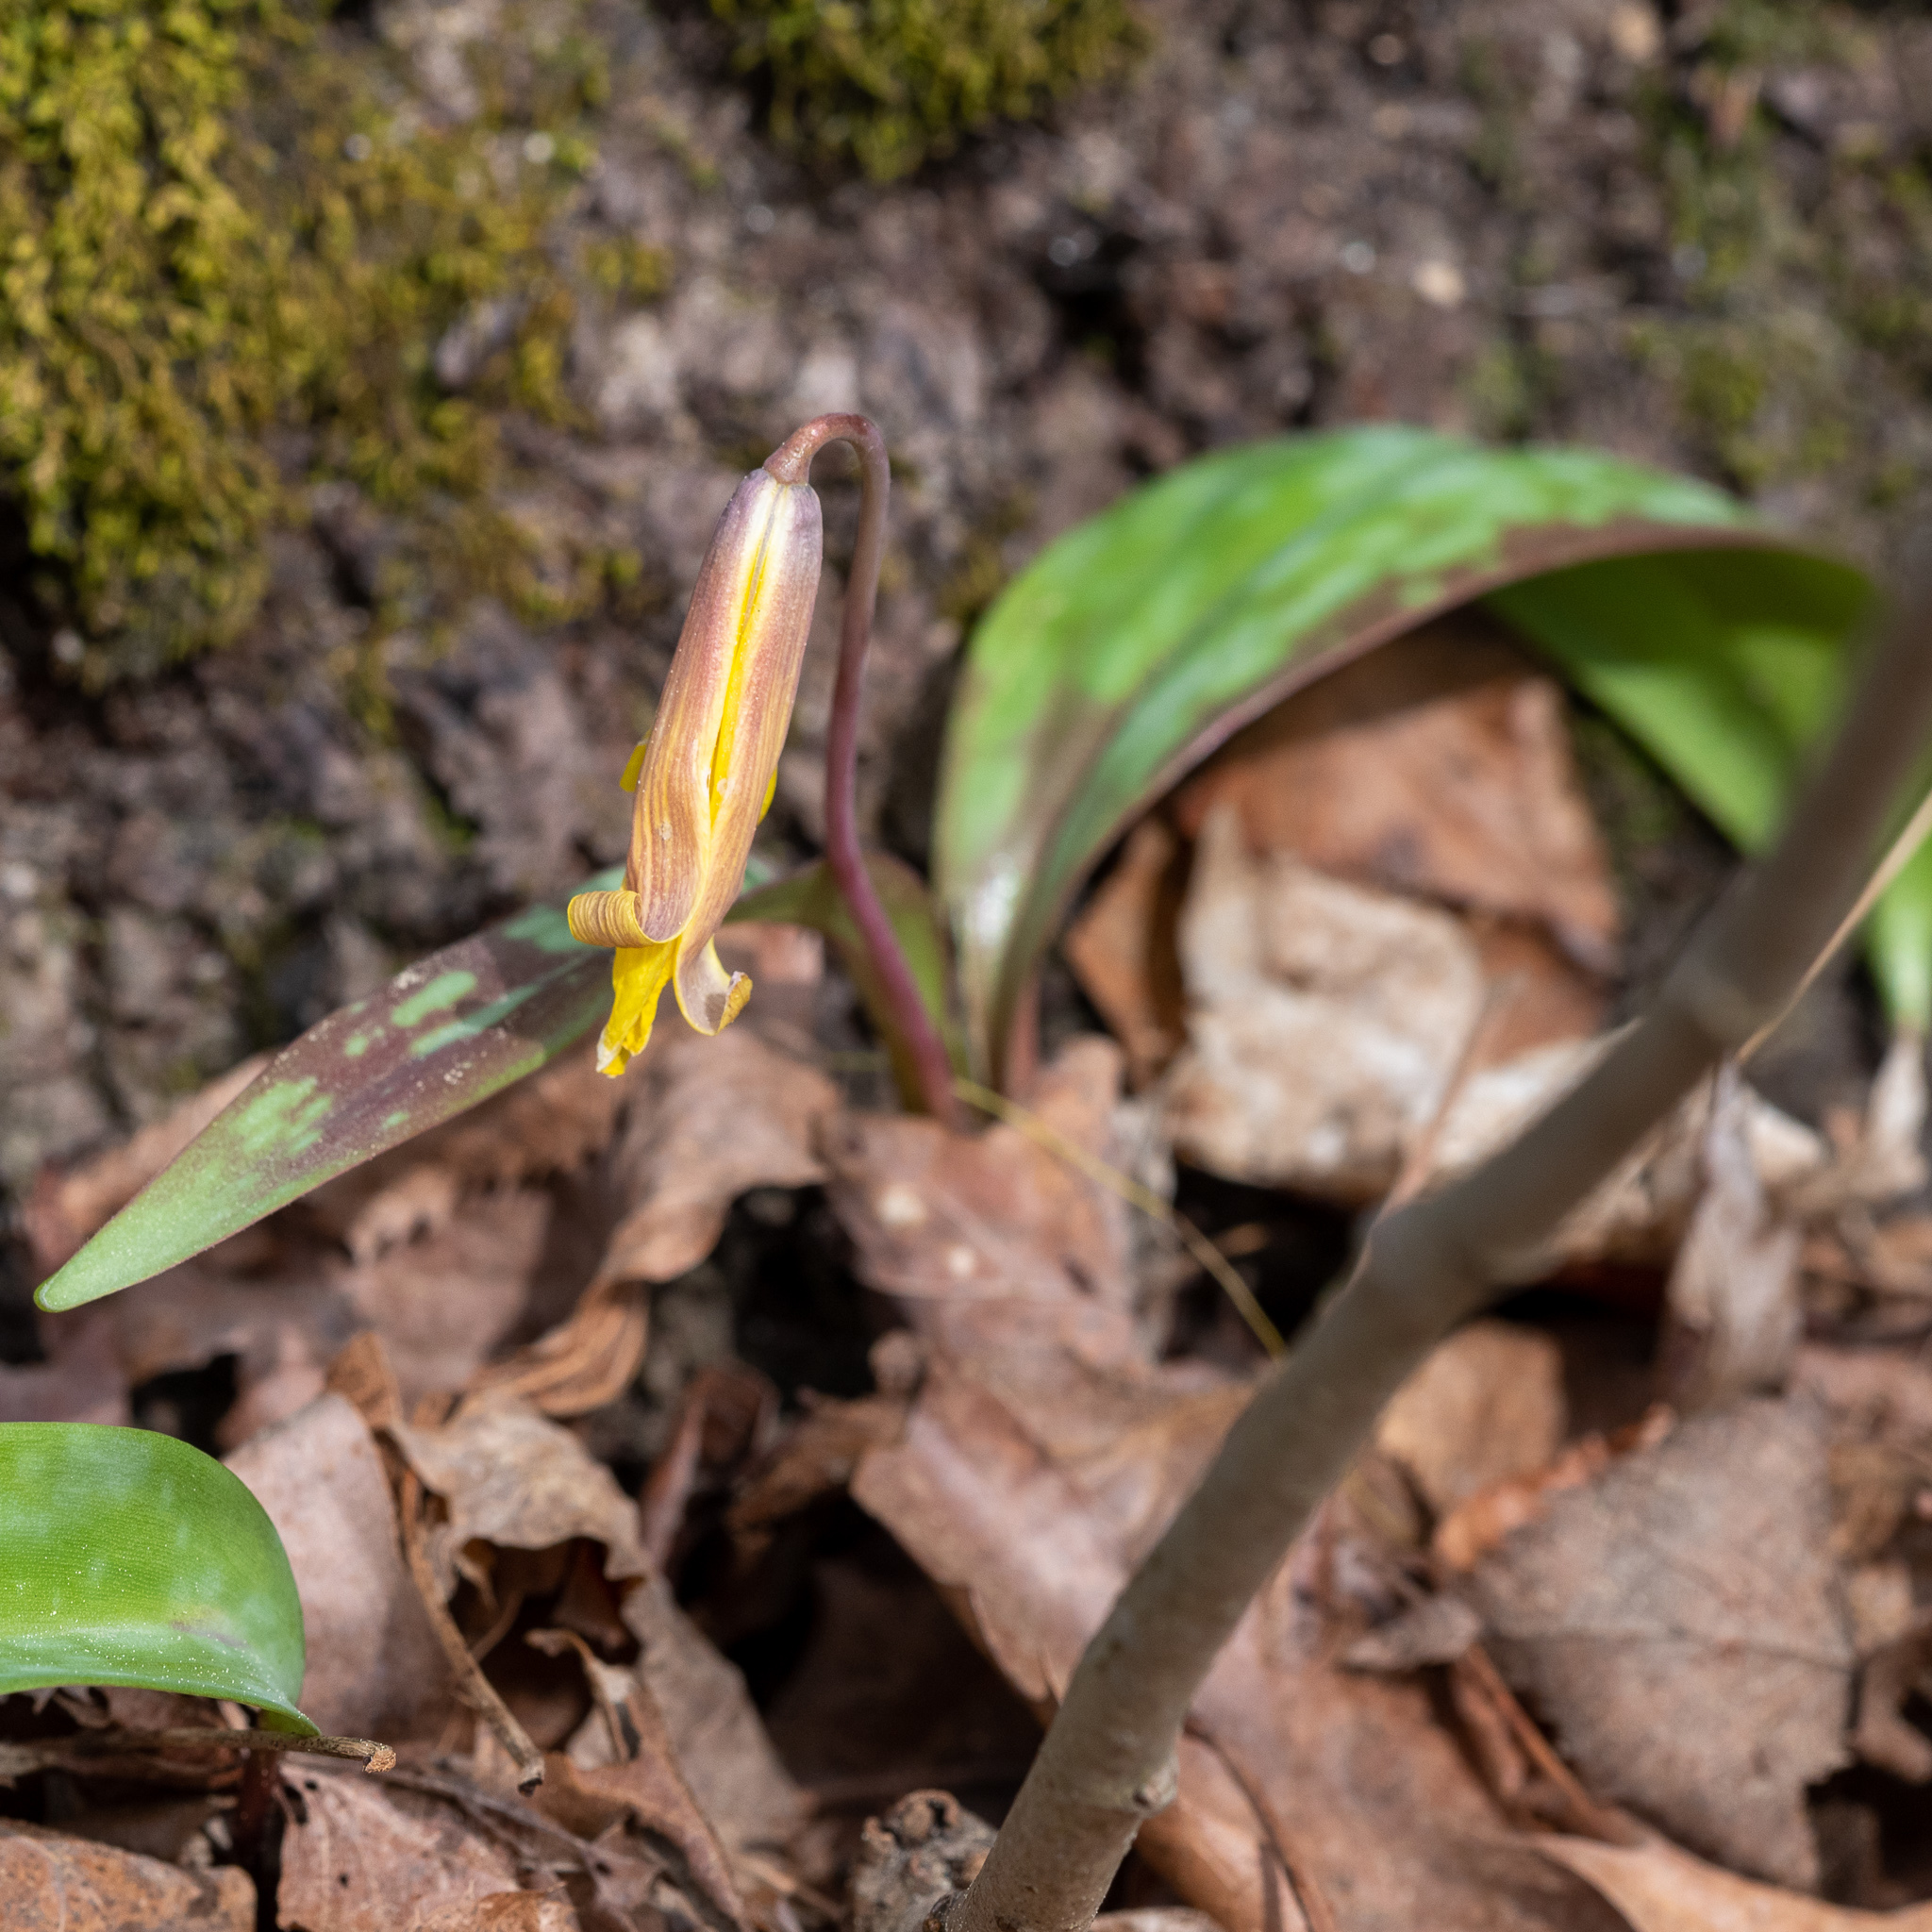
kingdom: Plantae
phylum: Tracheophyta
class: Liliopsida
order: Liliales
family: Liliaceae
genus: Erythronium
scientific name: Erythronium americanum
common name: Yellow adder's-tongue
